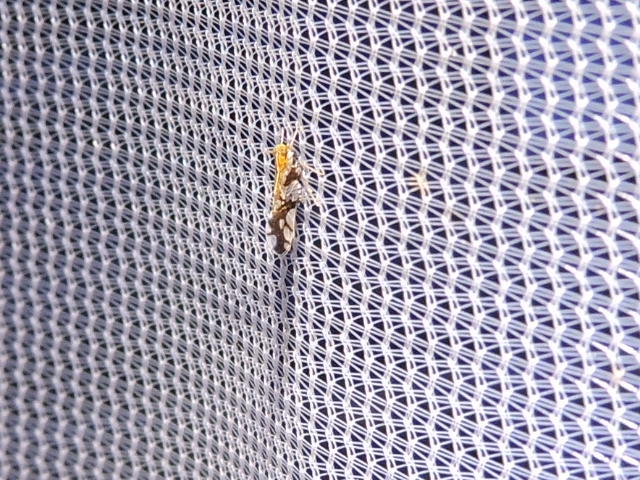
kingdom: Animalia
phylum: Arthropoda
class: Insecta
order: Hemiptera
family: Delphacidae
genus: Liburniella
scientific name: Liburniella ornata
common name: Ornate planthopper
